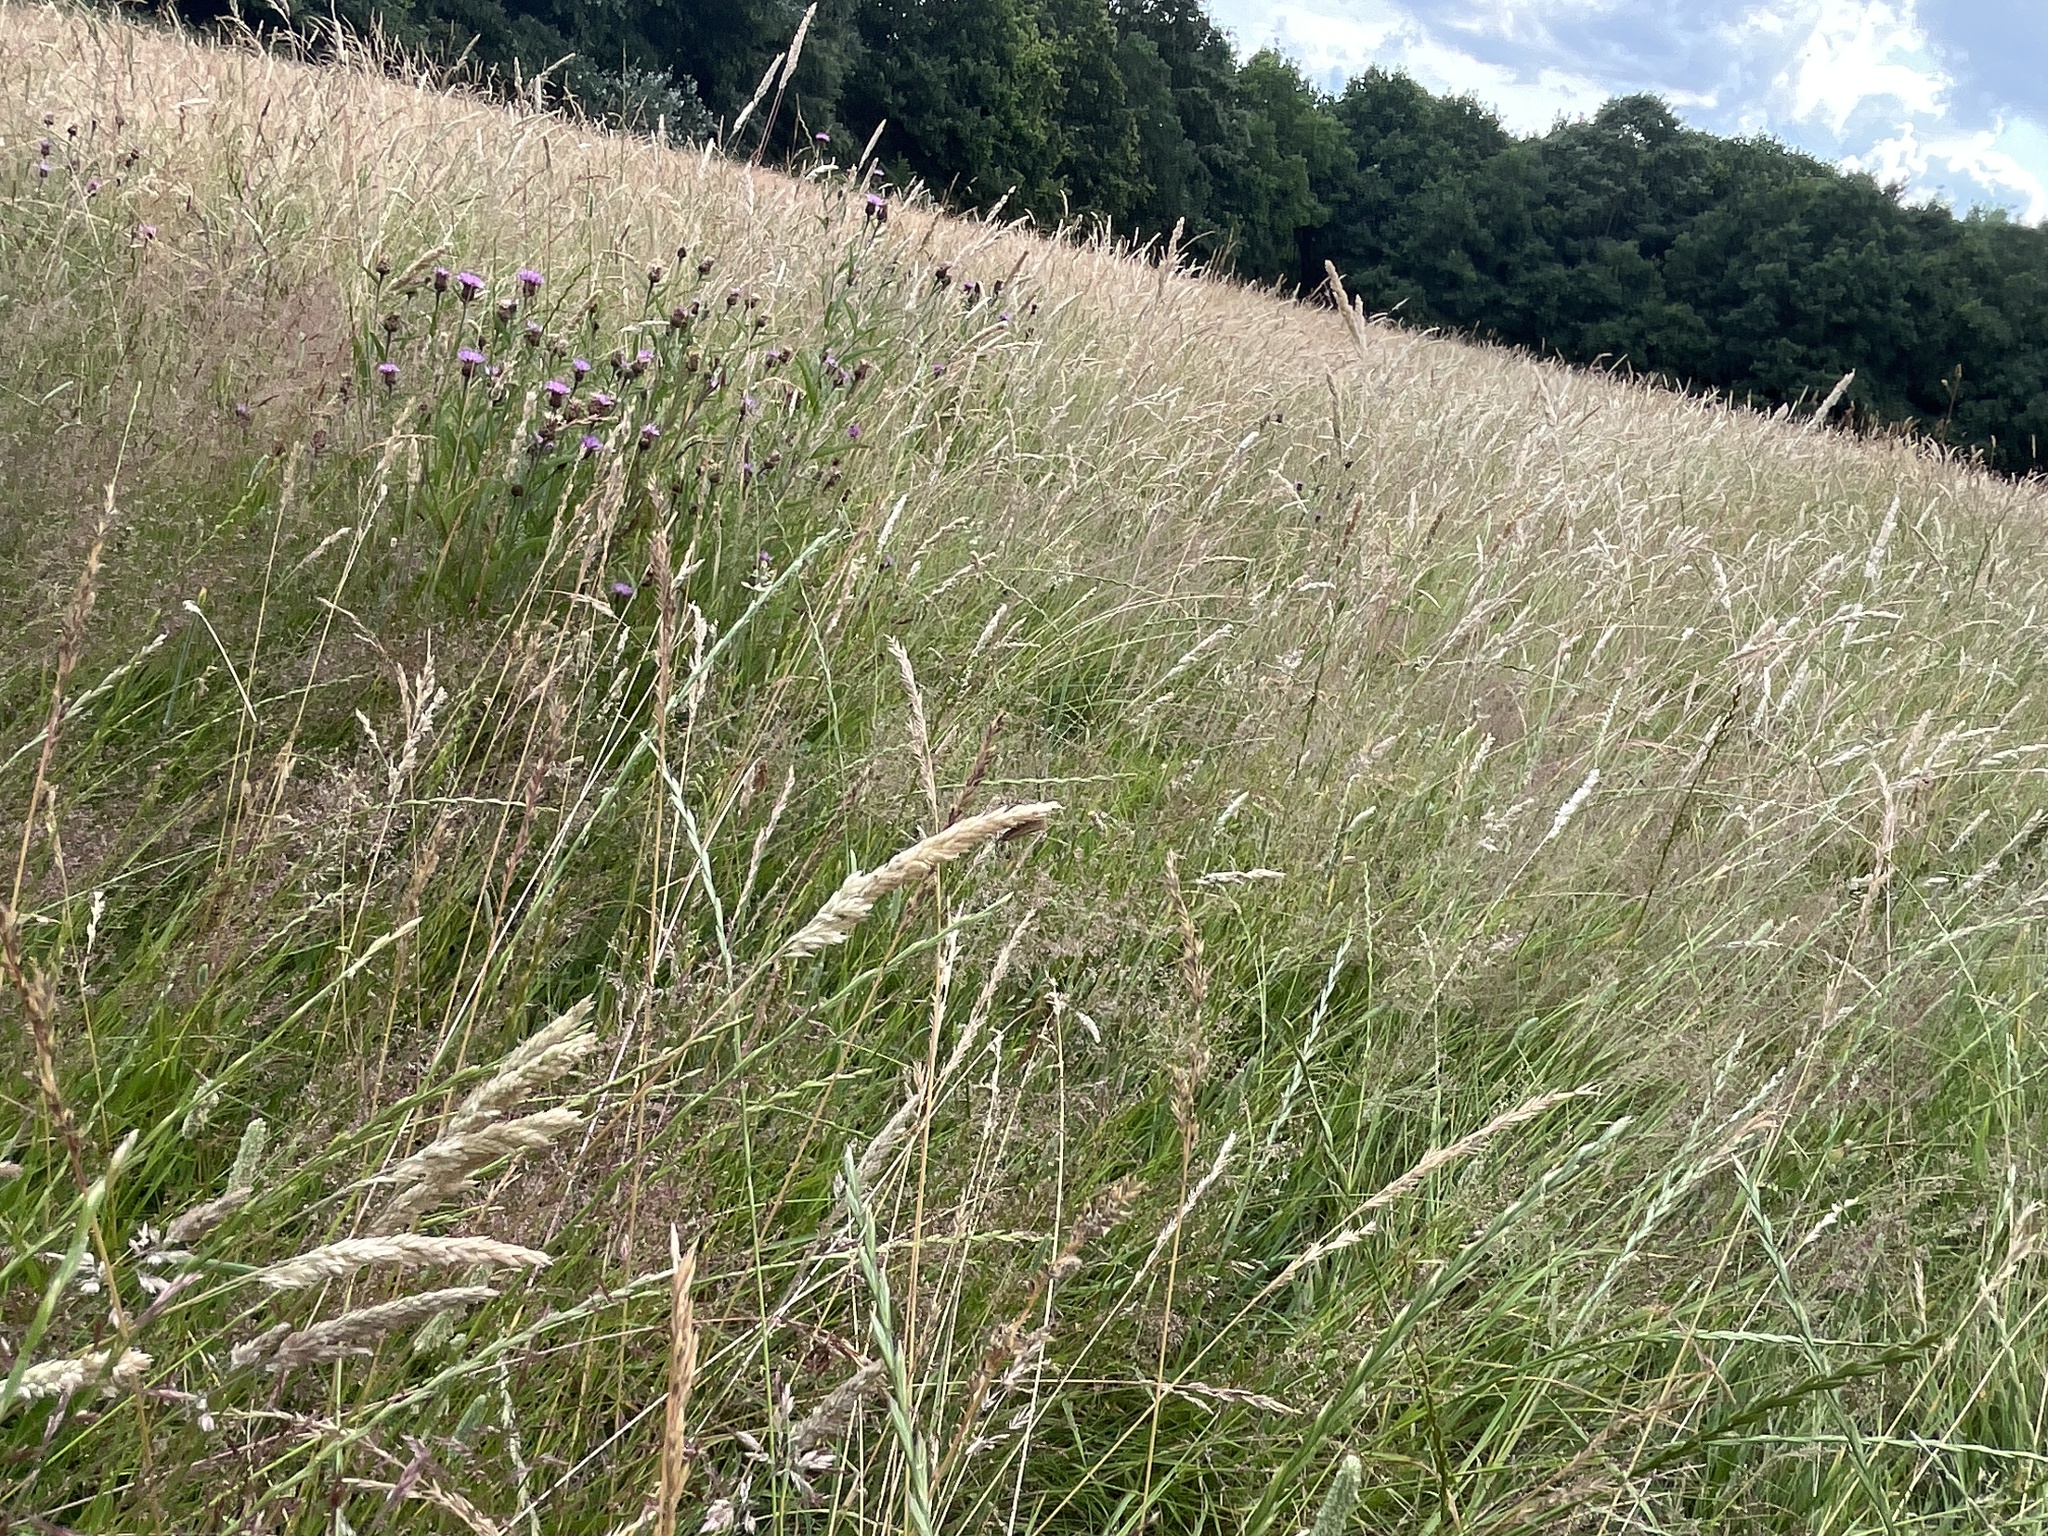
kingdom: Animalia
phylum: Arthropoda
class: Insecta
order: Lepidoptera
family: Crambidae
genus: Chrysoteuchia
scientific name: Chrysoteuchia culmella
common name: Garden grass-veneer
